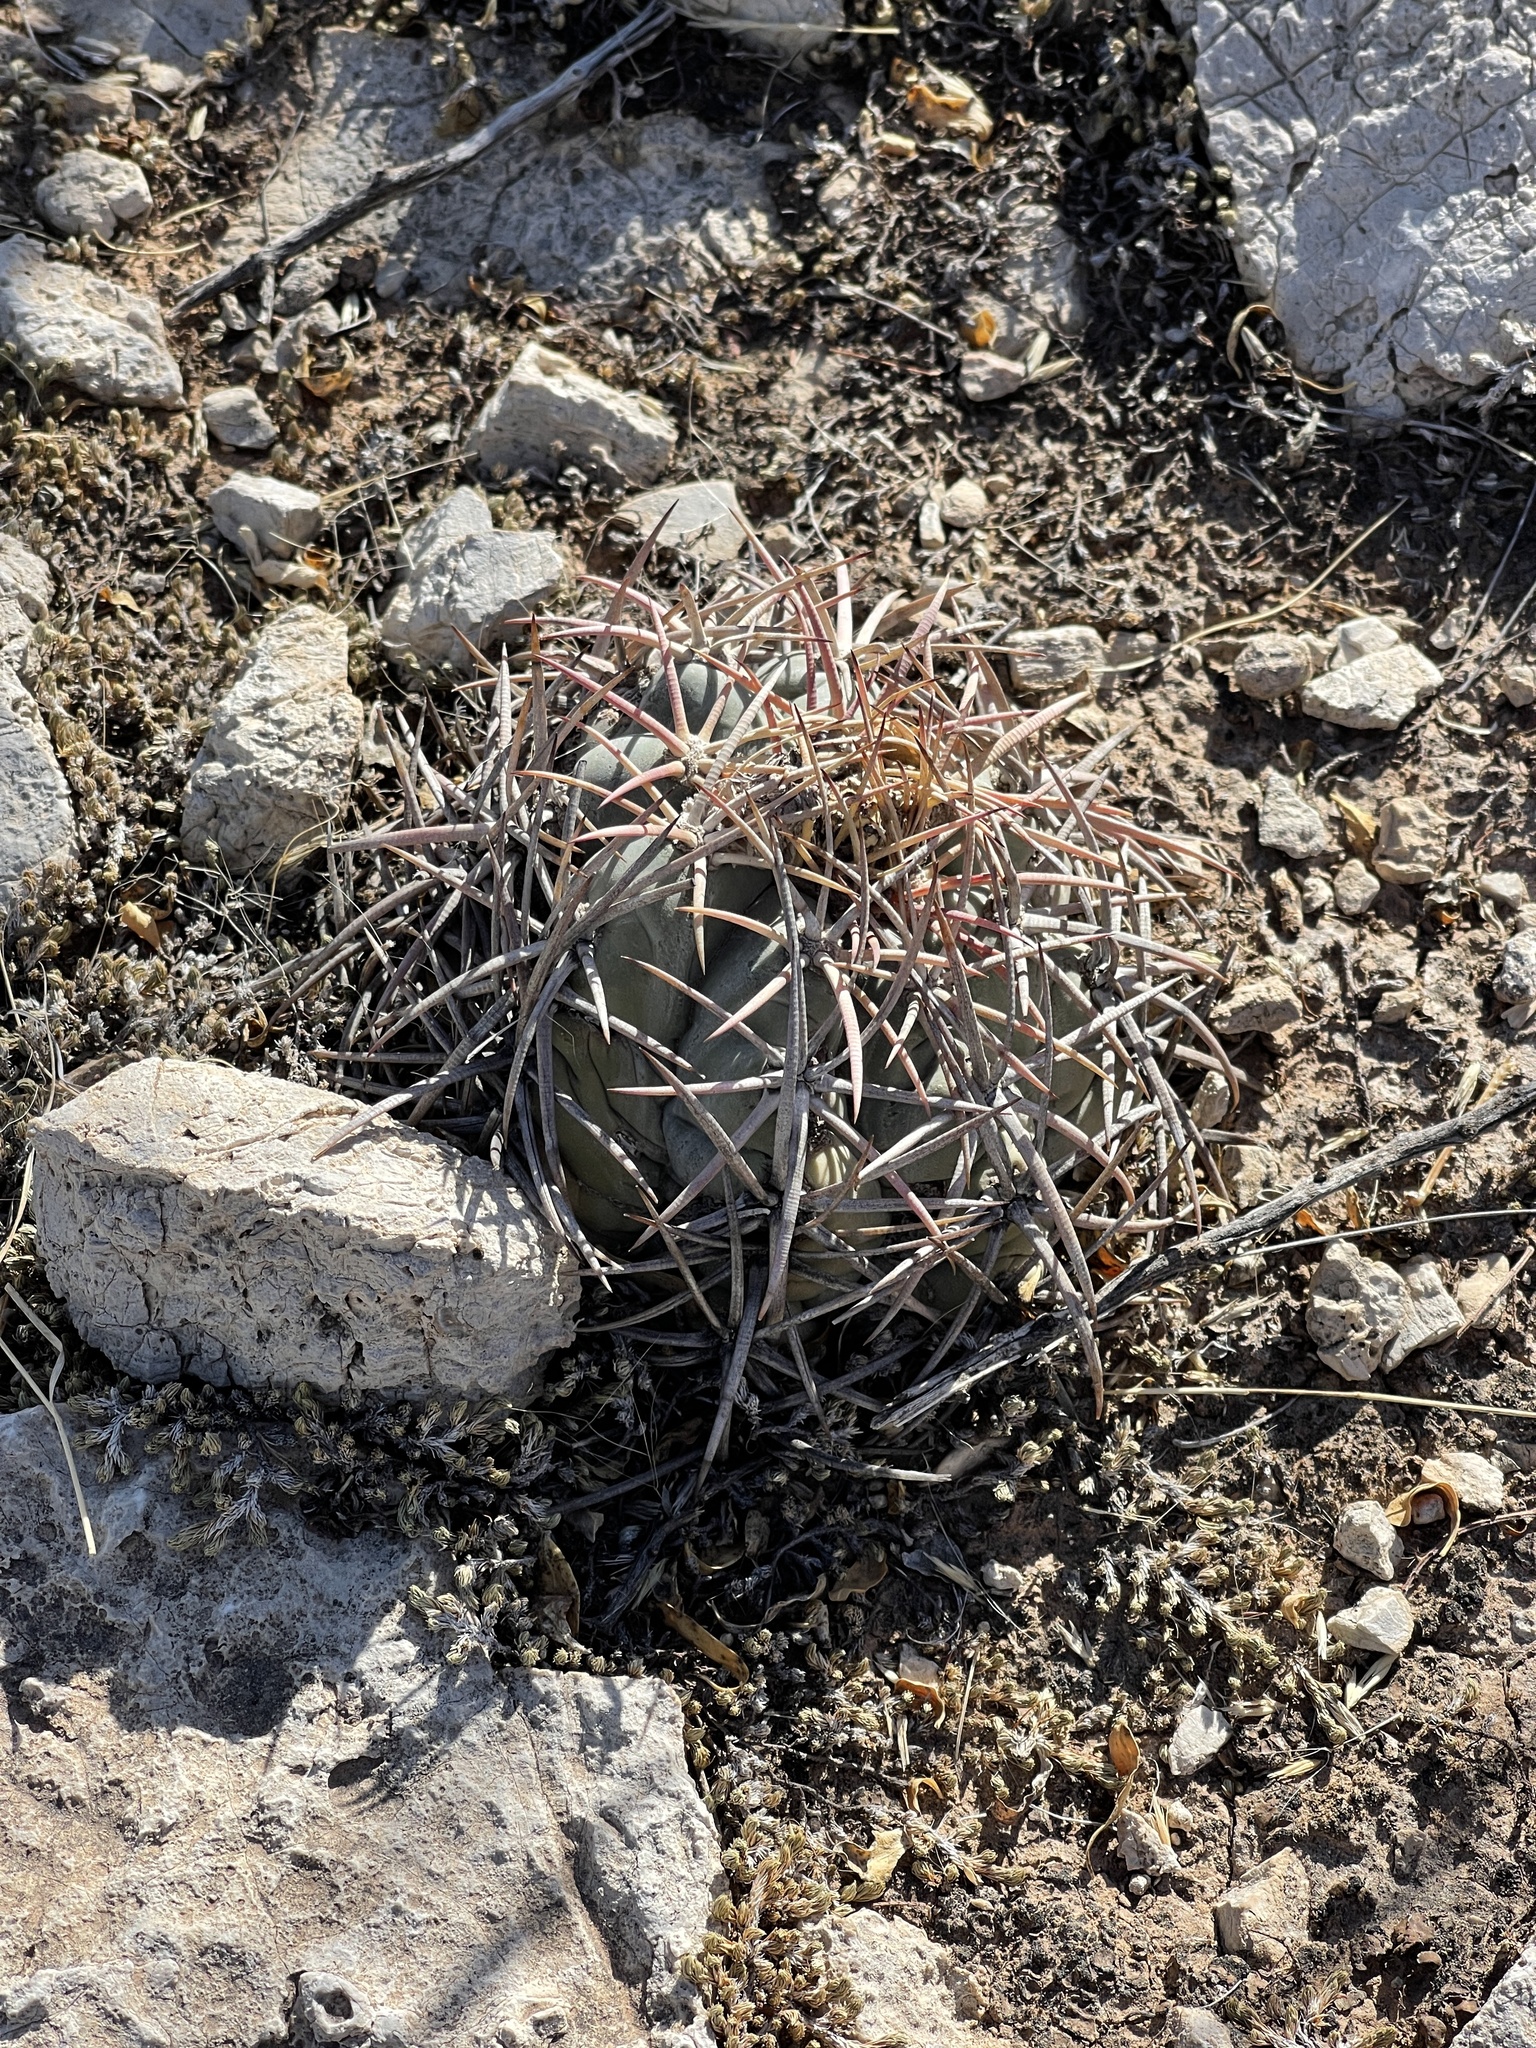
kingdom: Plantae
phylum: Tracheophyta
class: Magnoliopsida
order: Caryophyllales
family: Cactaceae
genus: Echinocactus
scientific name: Echinocactus horizonthalonius
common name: Devilshead
